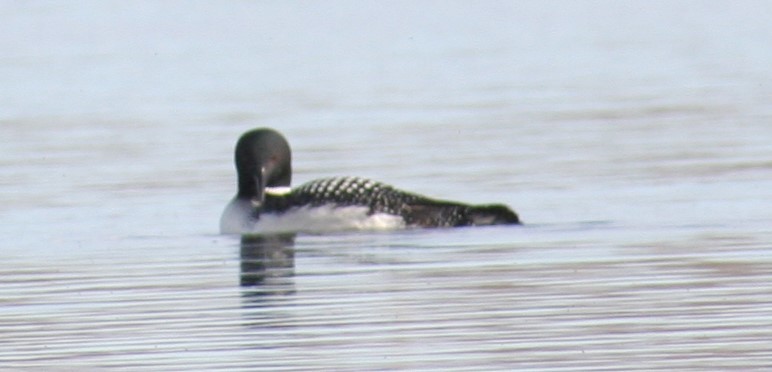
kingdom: Animalia
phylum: Chordata
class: Aves
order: Gaviiformes
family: Gaviidae
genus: Gavia
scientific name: Gavia immer
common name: Common loon
